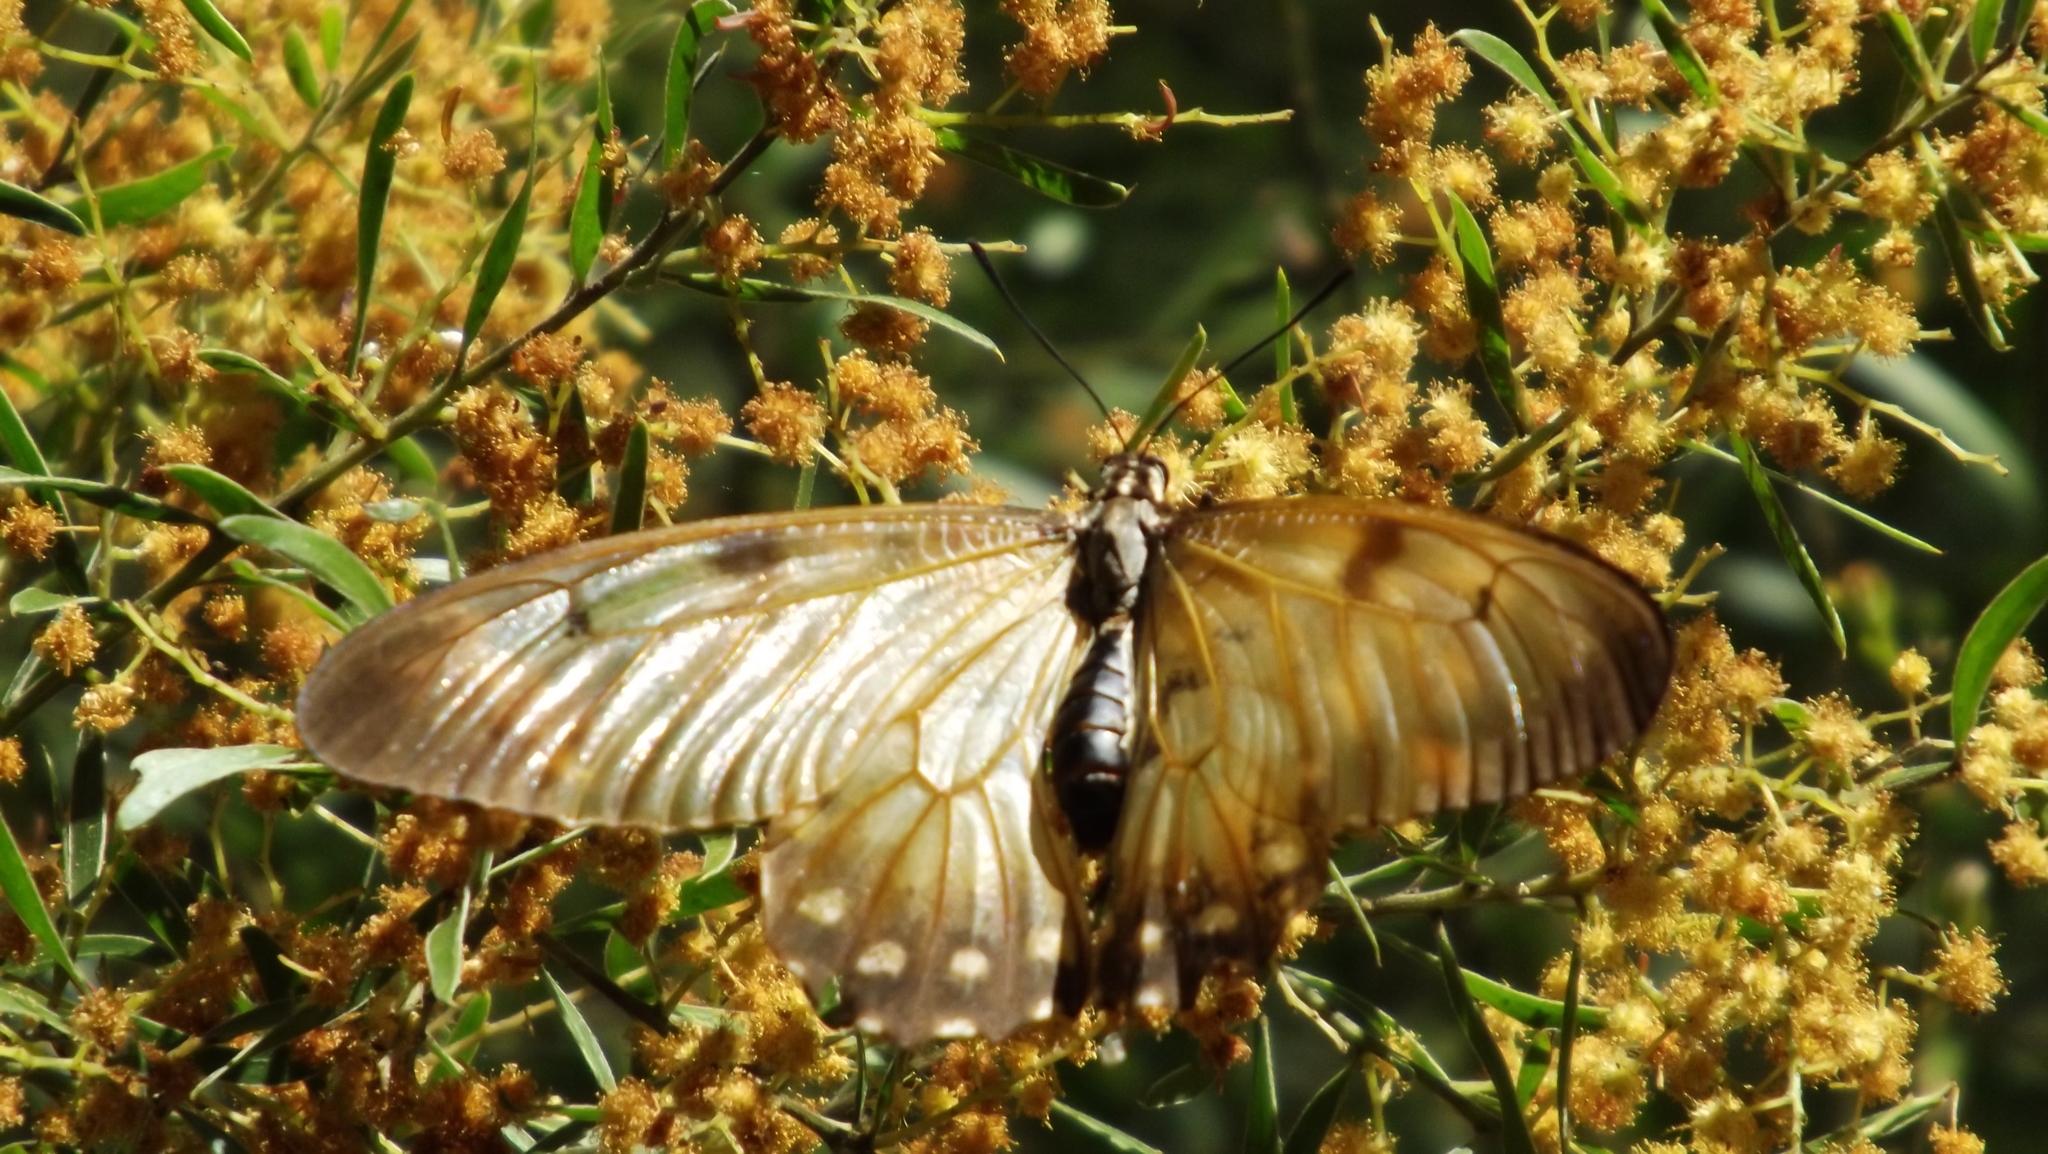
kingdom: Animalia
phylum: Arthropoda
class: Insecta
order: Lepidoptera
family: Papilionidae
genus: Cressida
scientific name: Cressida cressida
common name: Big greasy
